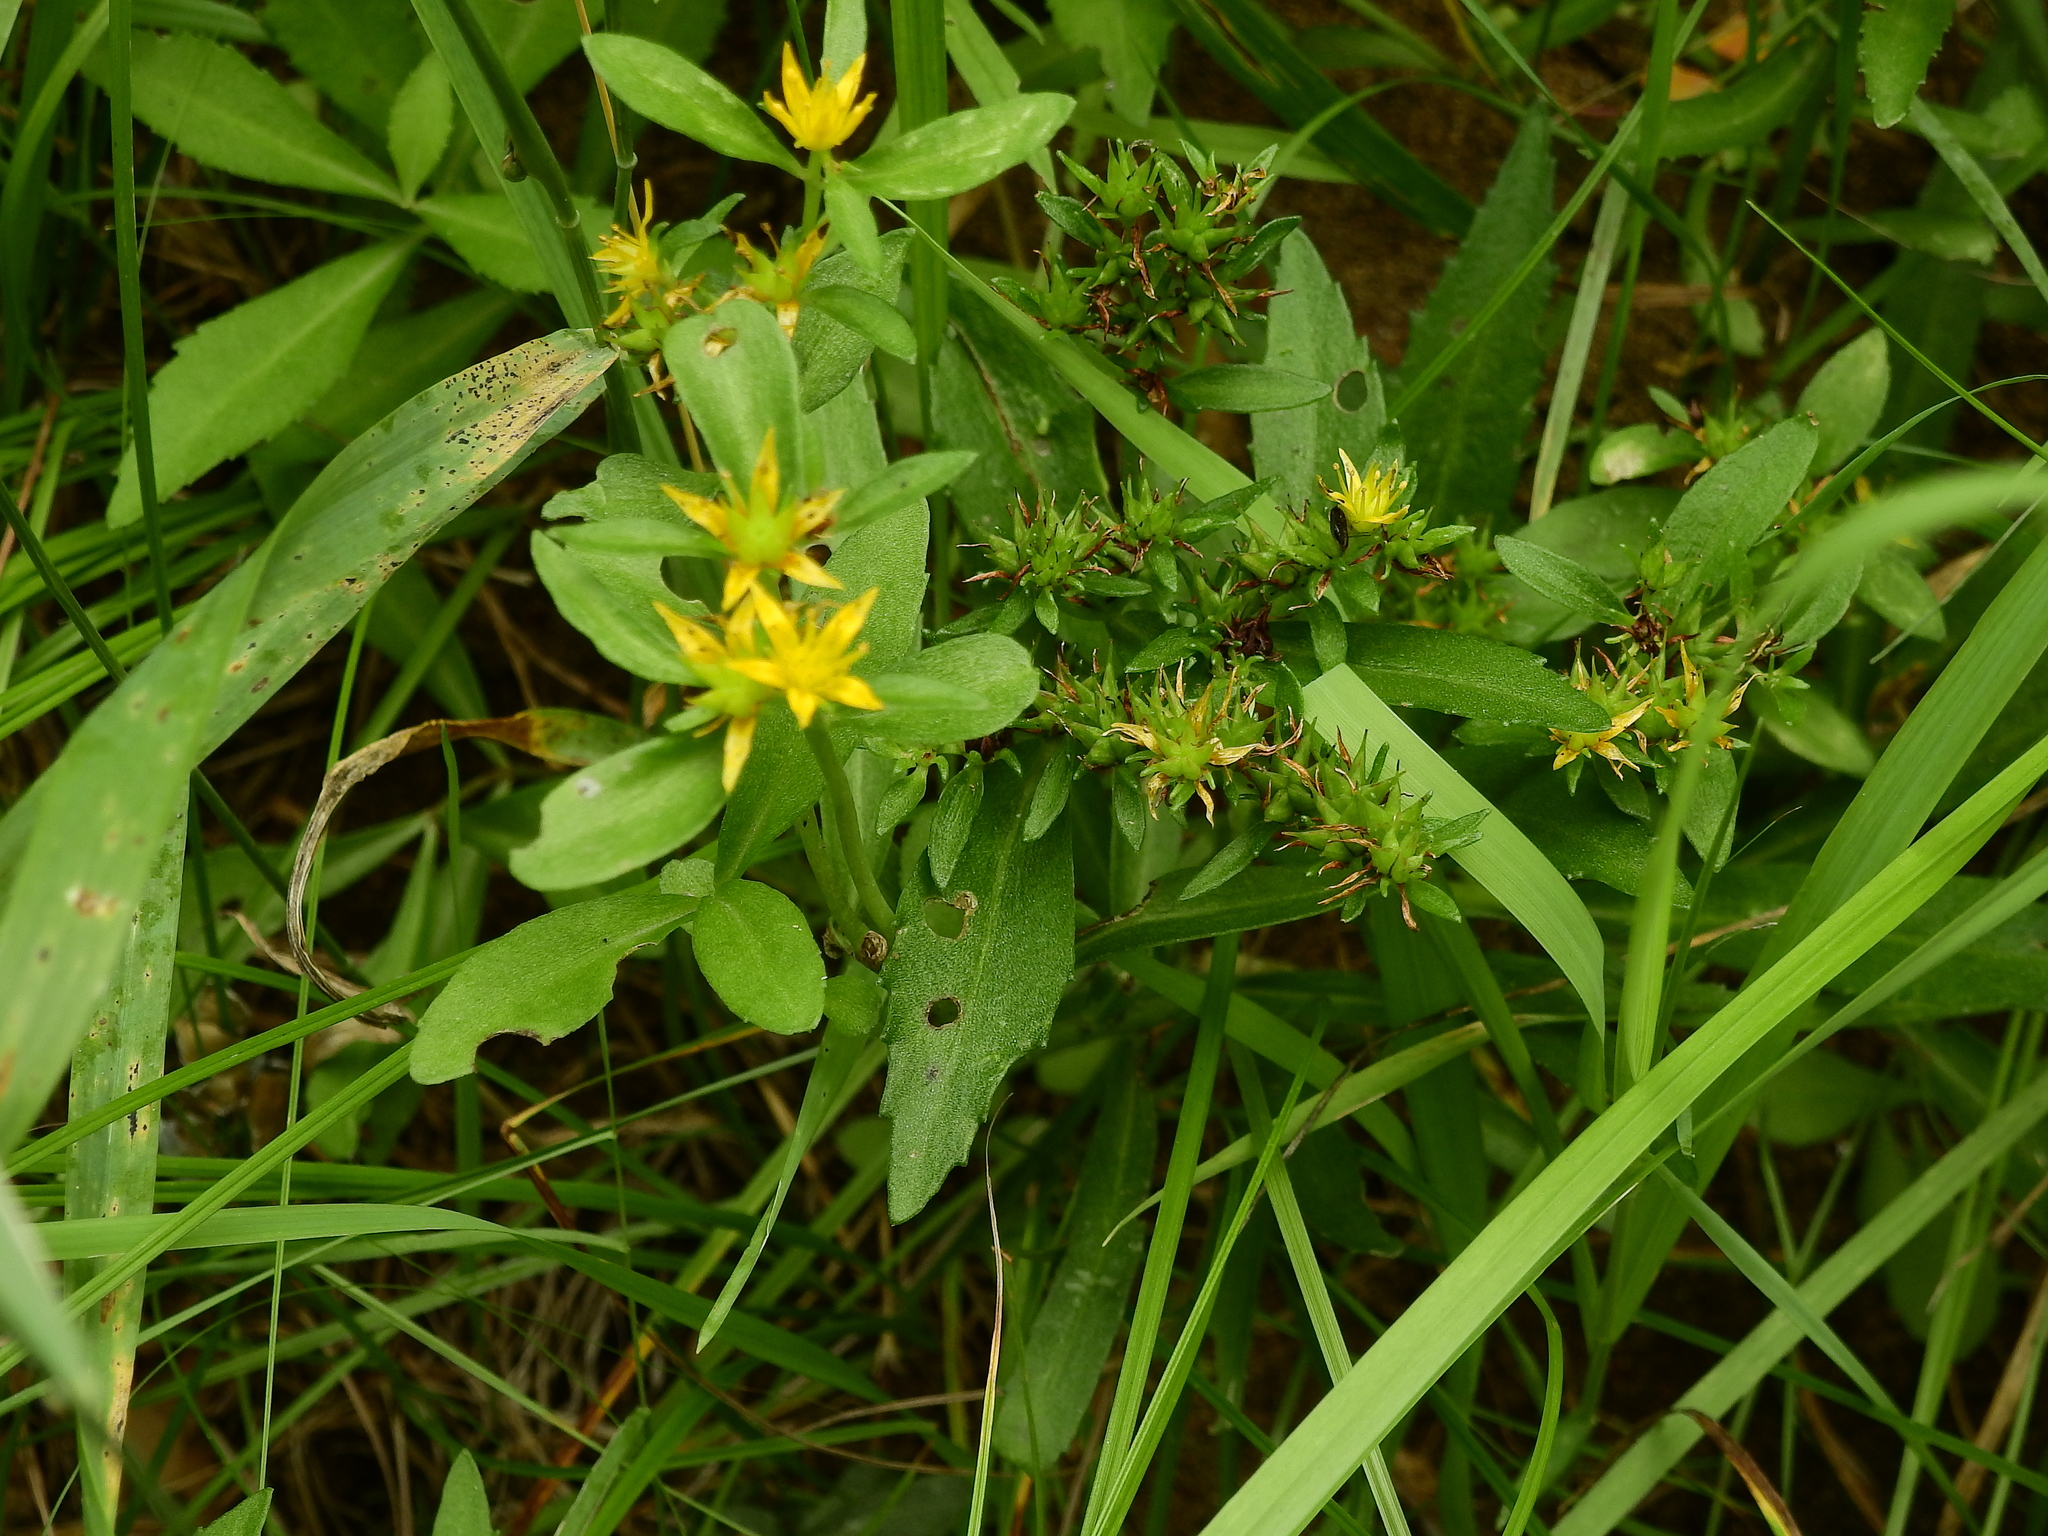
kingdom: Plantae
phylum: Tracheophyta
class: Magnoliopsida
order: Saxifragales
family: Crassulaceae
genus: Phedimus
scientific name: Phedimus aizoon
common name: Orpin aizoon
